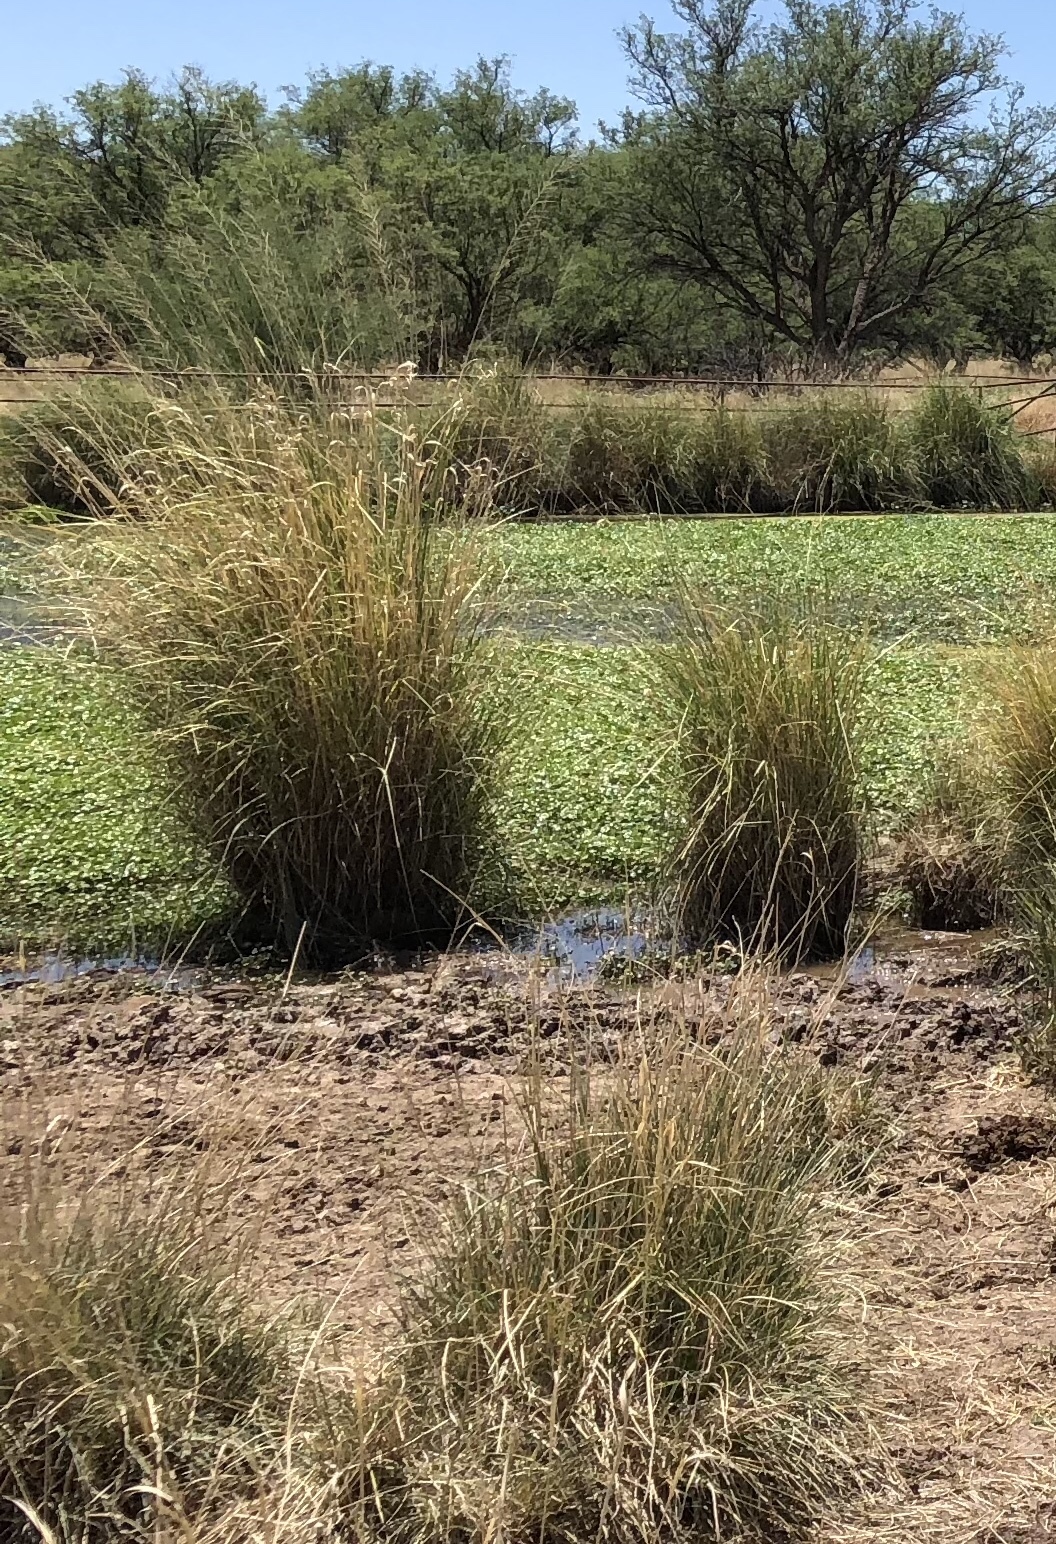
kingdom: Plantae
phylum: Tracheophyta
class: Liliopsida
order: Poales
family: Poaceae
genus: Sporobolus
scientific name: Sporobolus wrightii
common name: Big alkali sacaton
